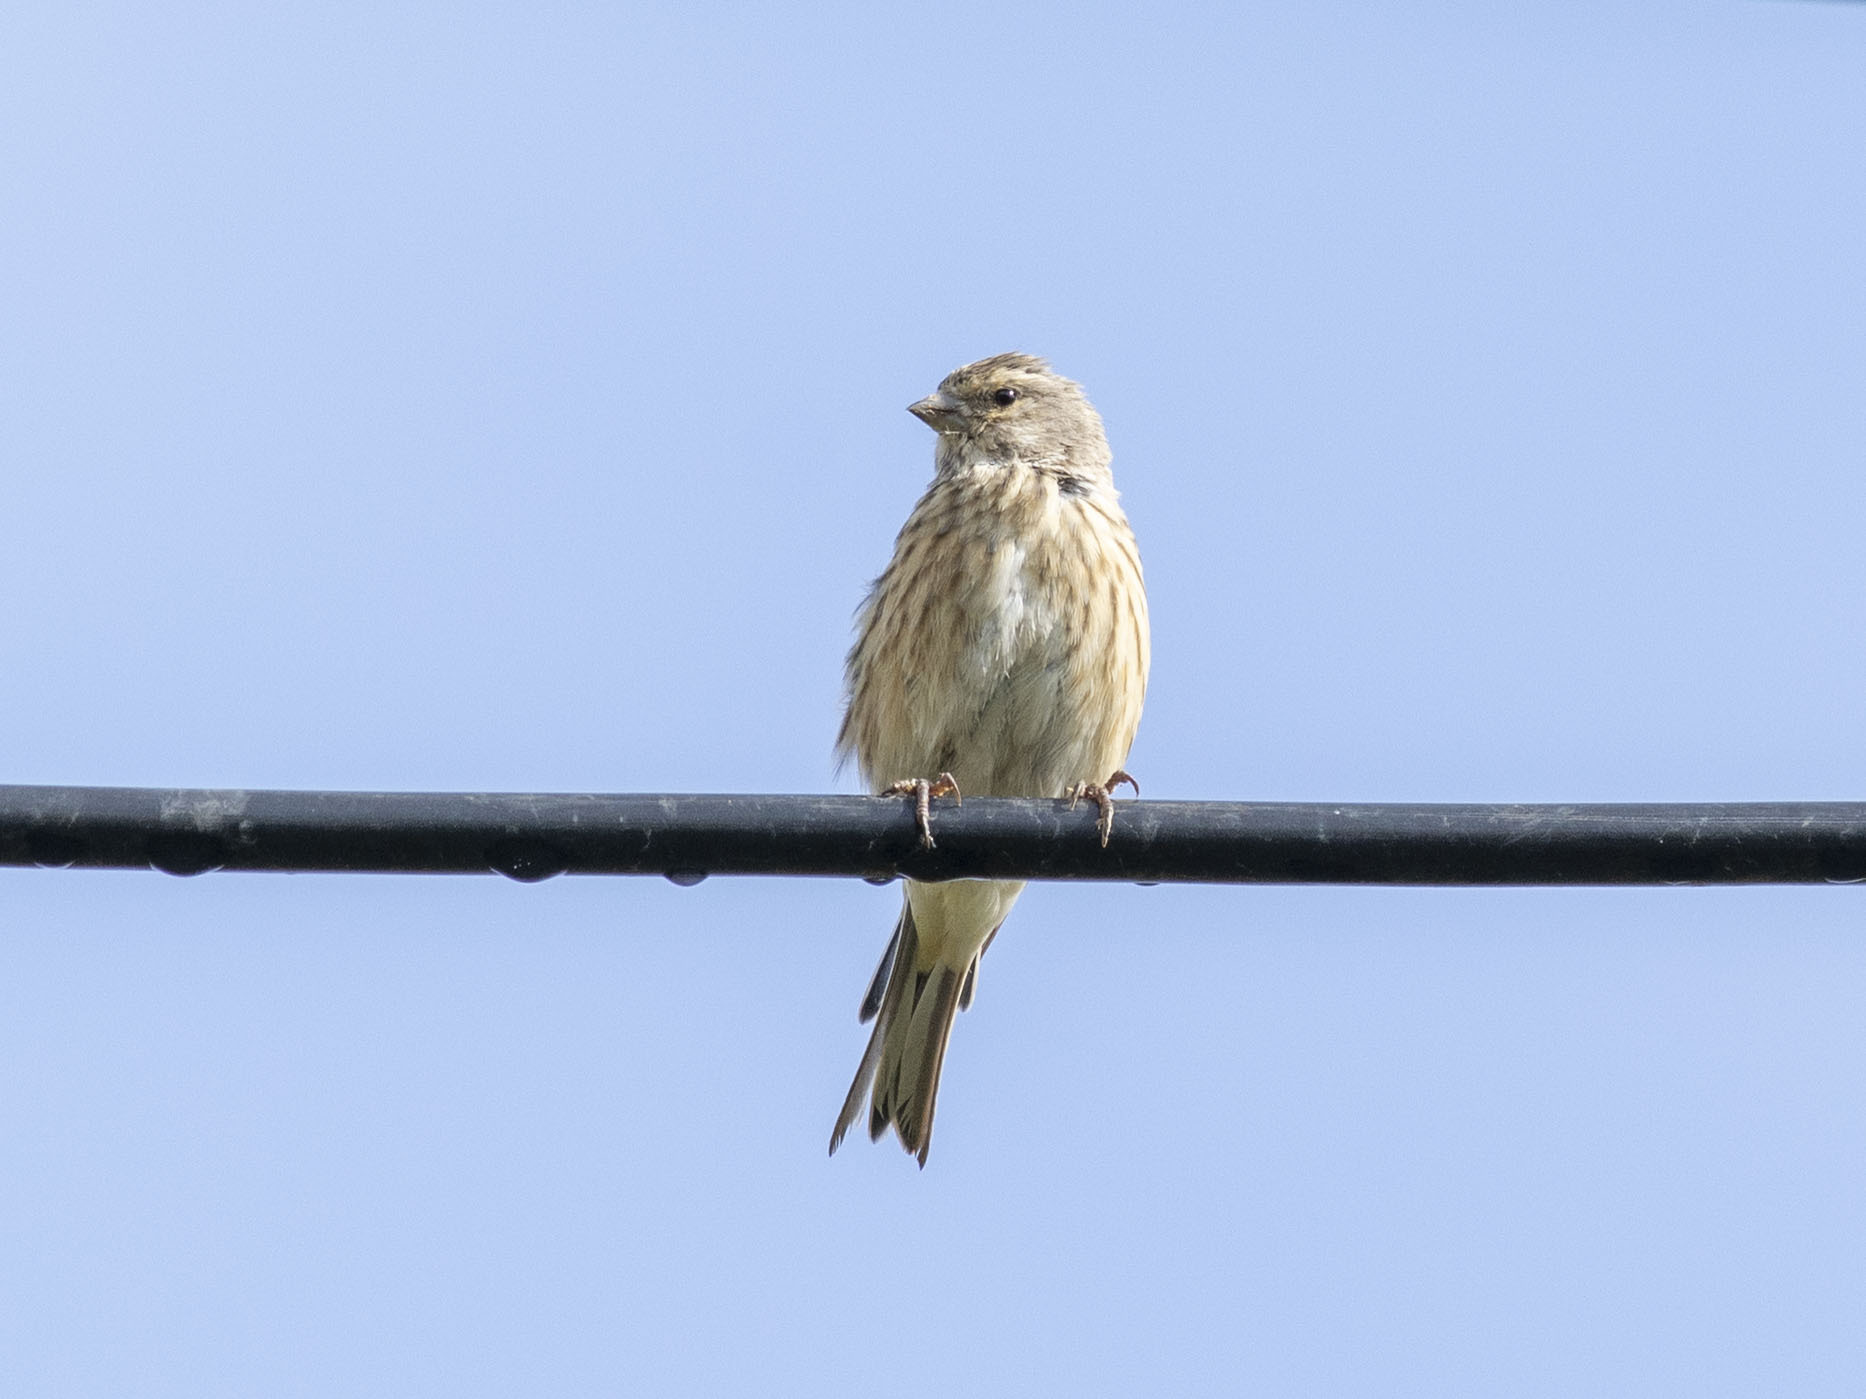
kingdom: Animalia
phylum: Chordata
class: Aves
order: Passeriformes
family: Fringillidae
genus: Linaria
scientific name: Linaria cannabina
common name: Common linnet
